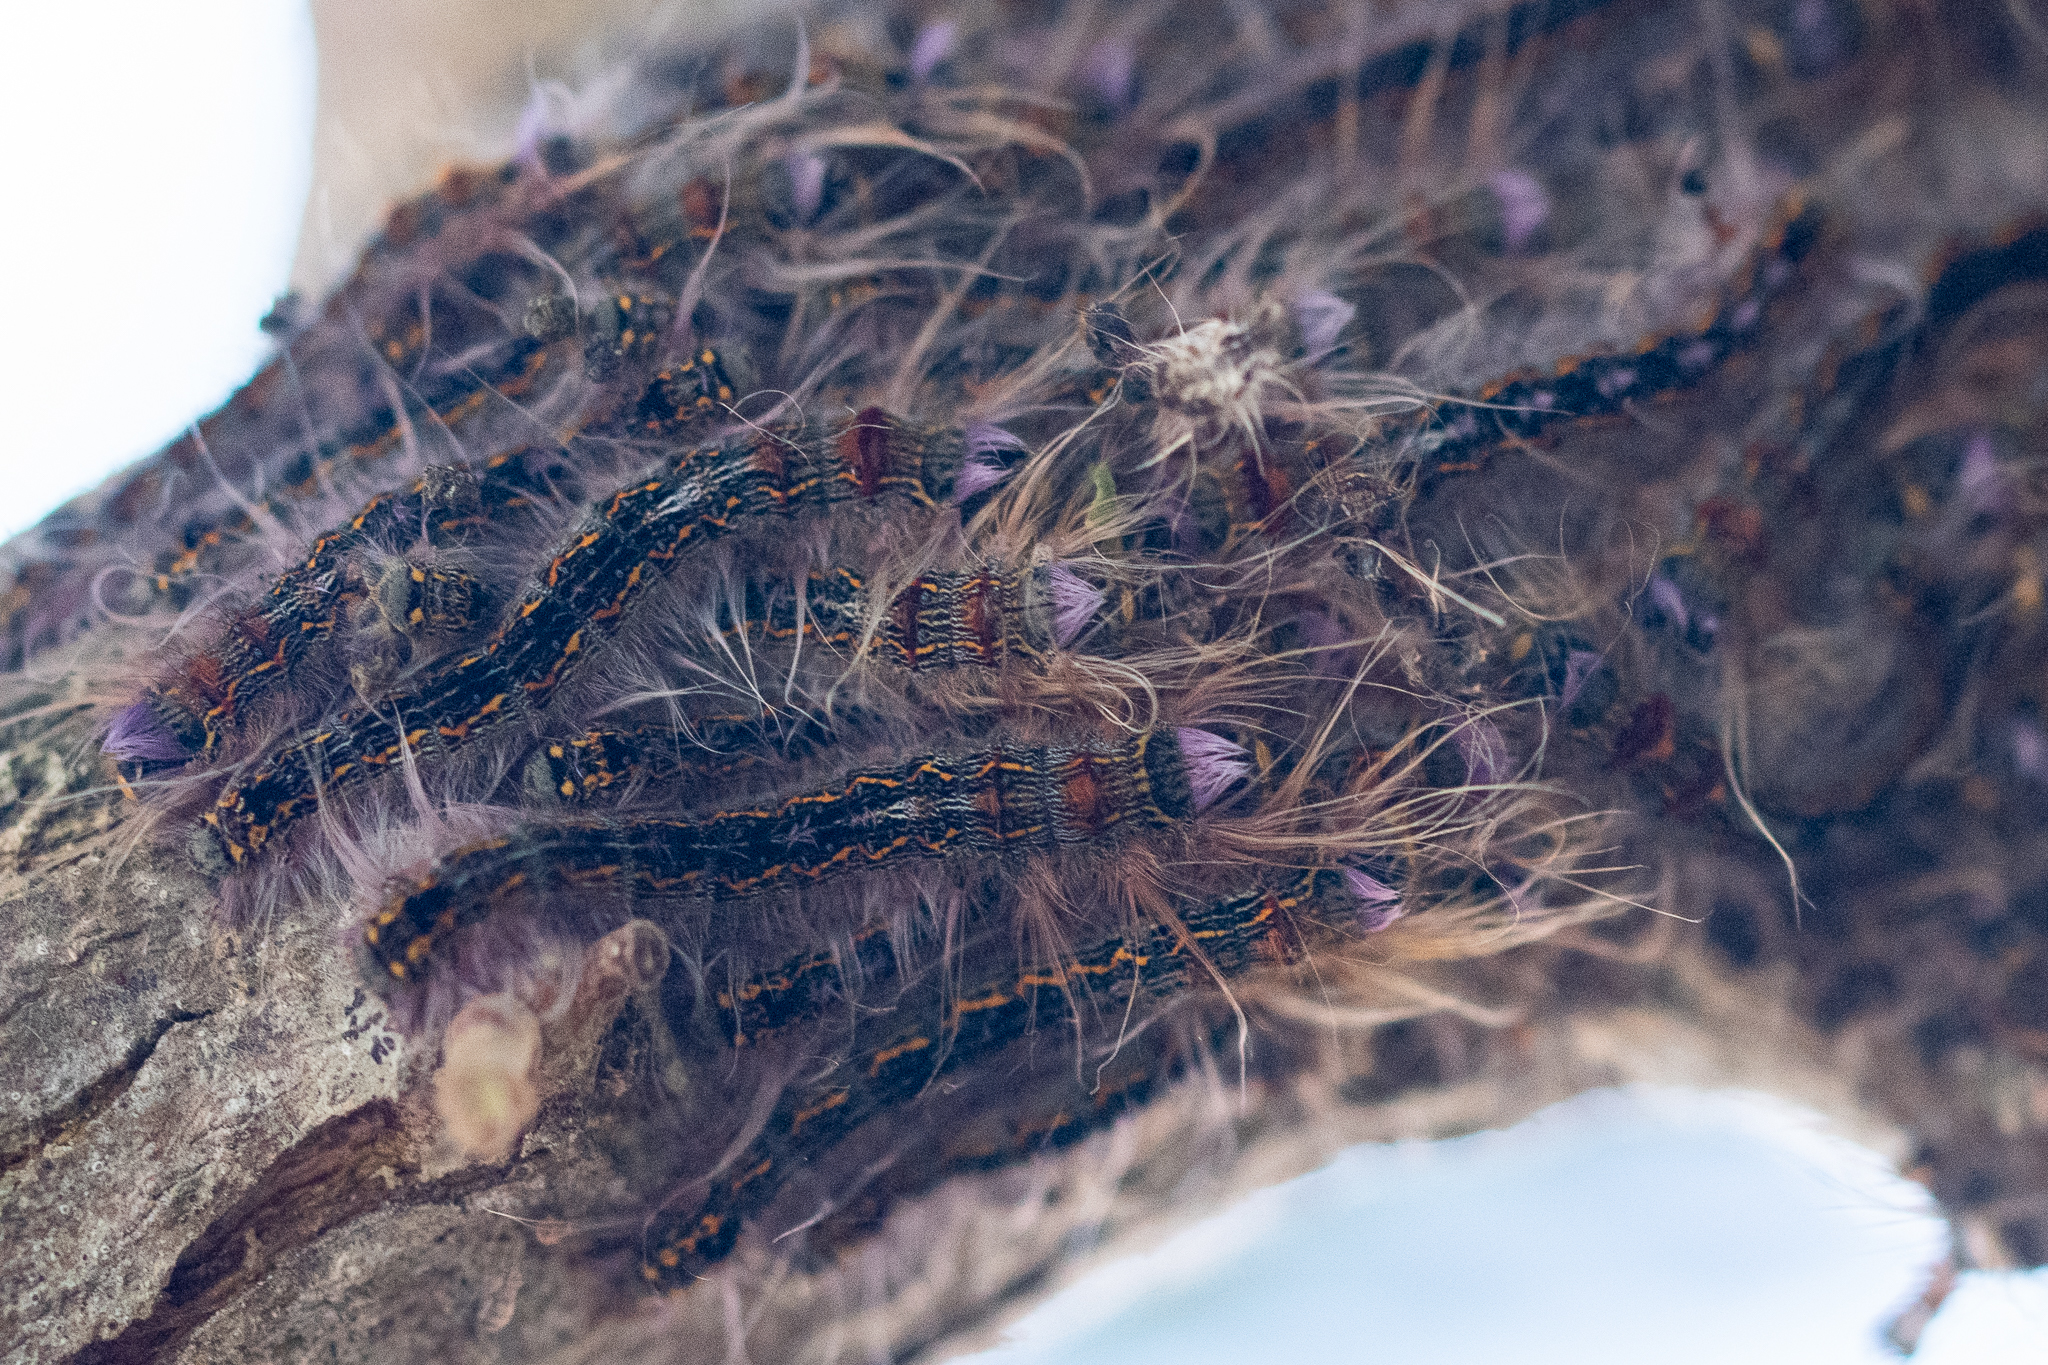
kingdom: Animalia
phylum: Arthropoda
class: Insecta
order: Lepidoptera
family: Lasiocampidae
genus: Eutricha
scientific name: Eutricha capensis
